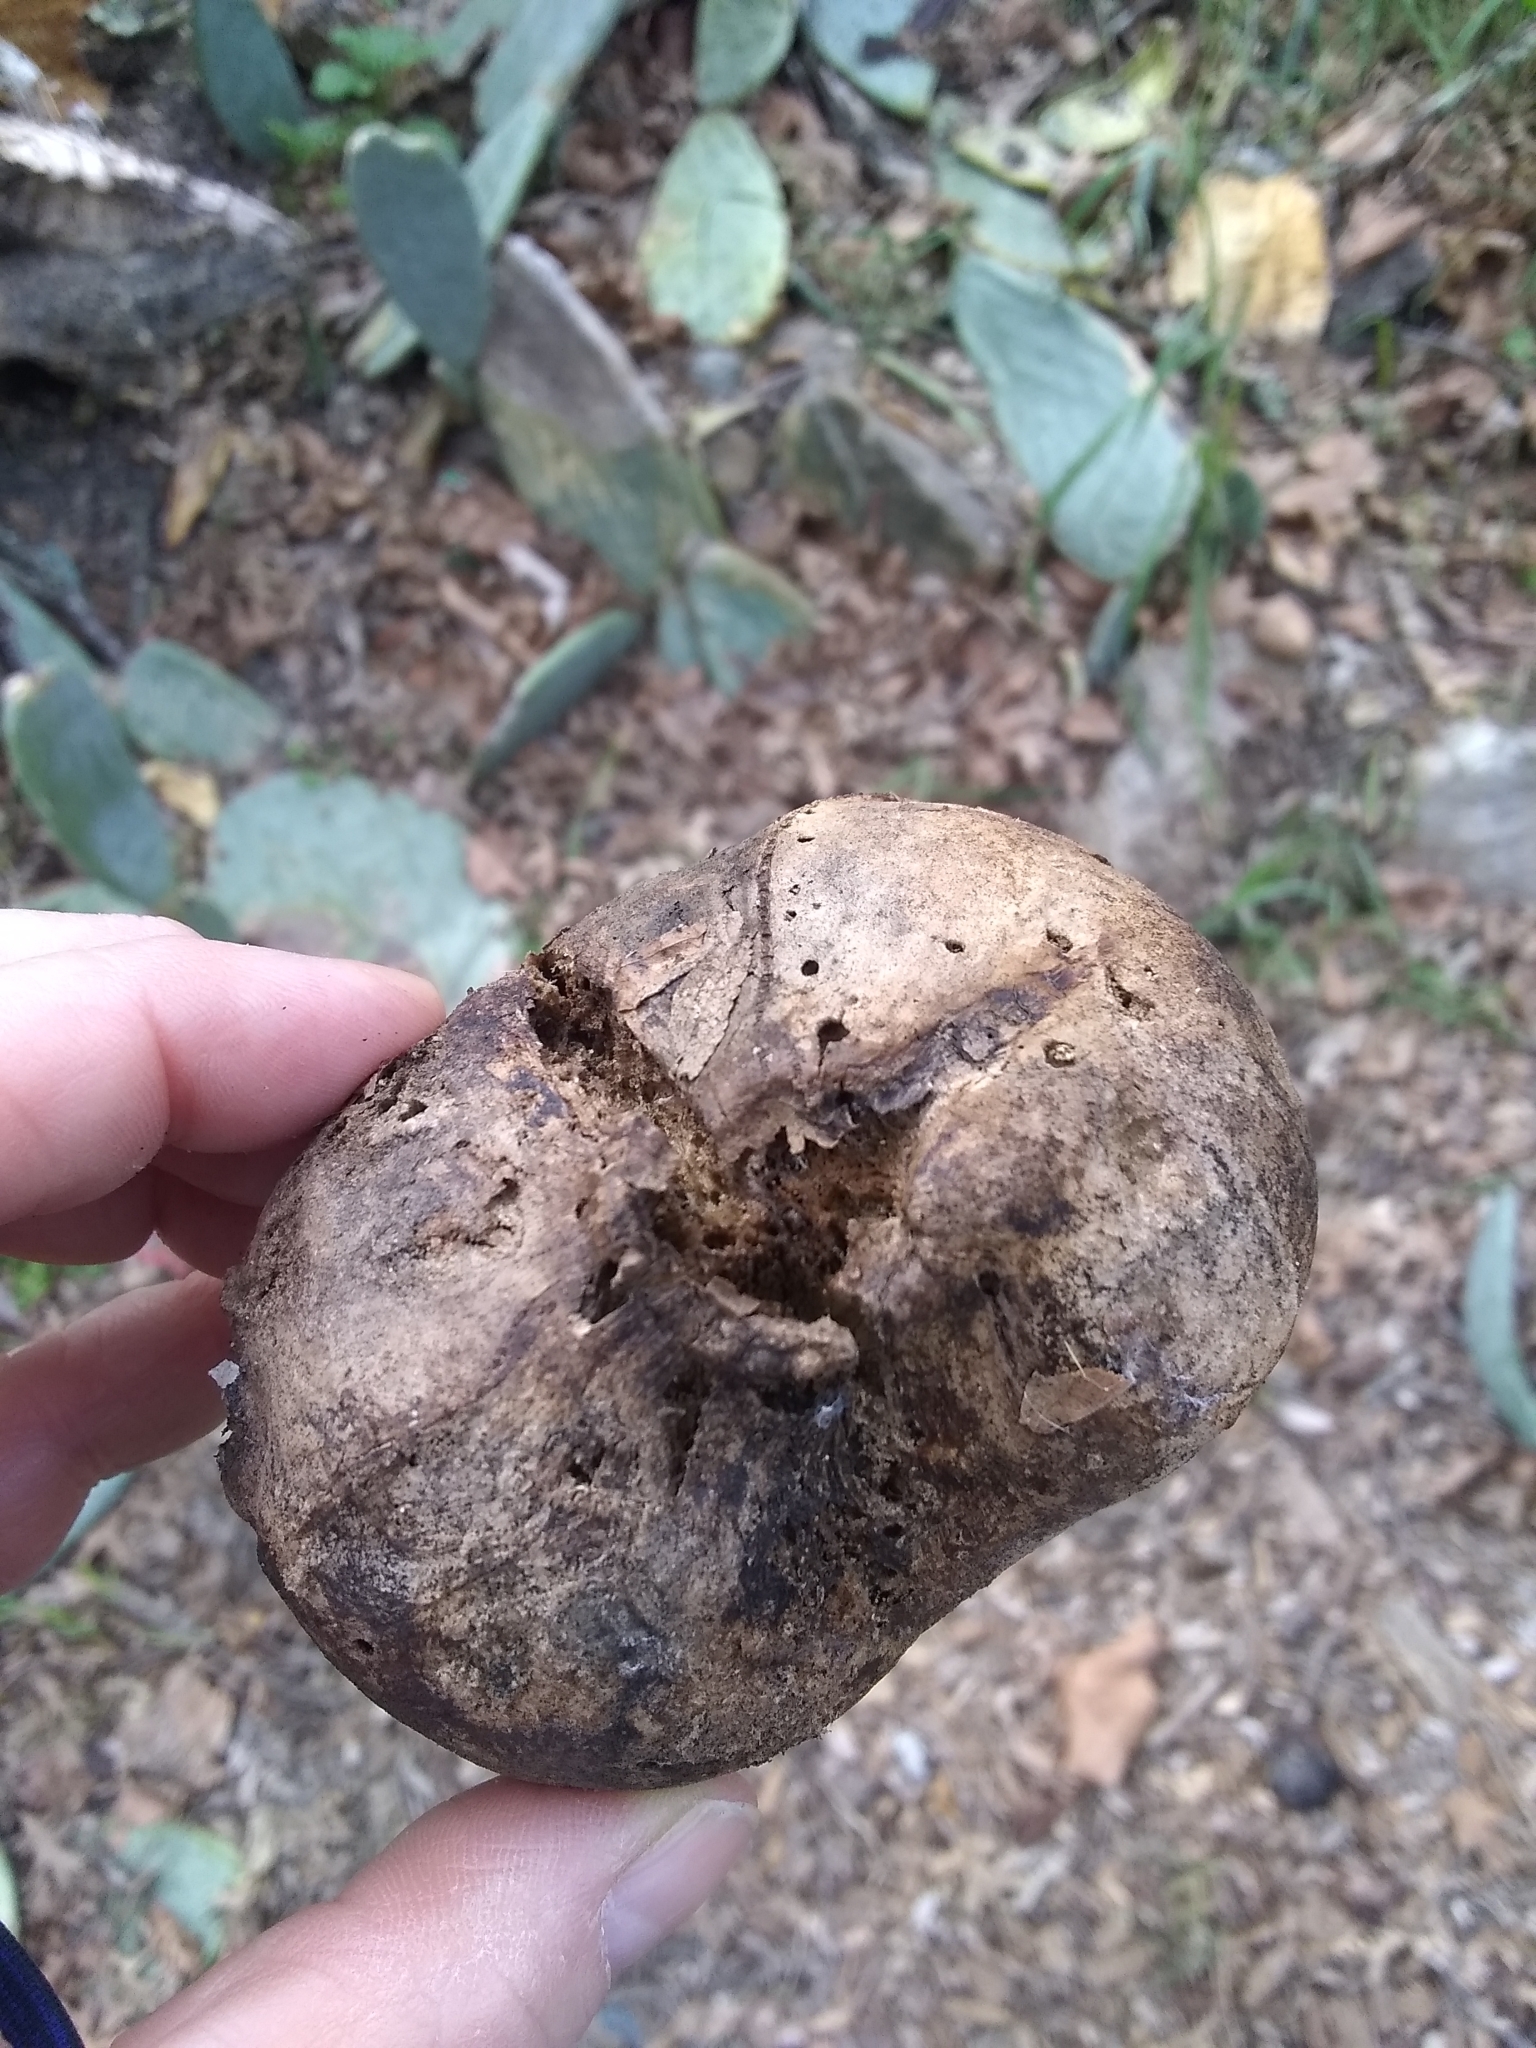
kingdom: Animalia
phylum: Arthropoda
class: Insecta
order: Hymenoptera
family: Cynipidae
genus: Andricus
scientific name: Andricus quercuscalifornicus
